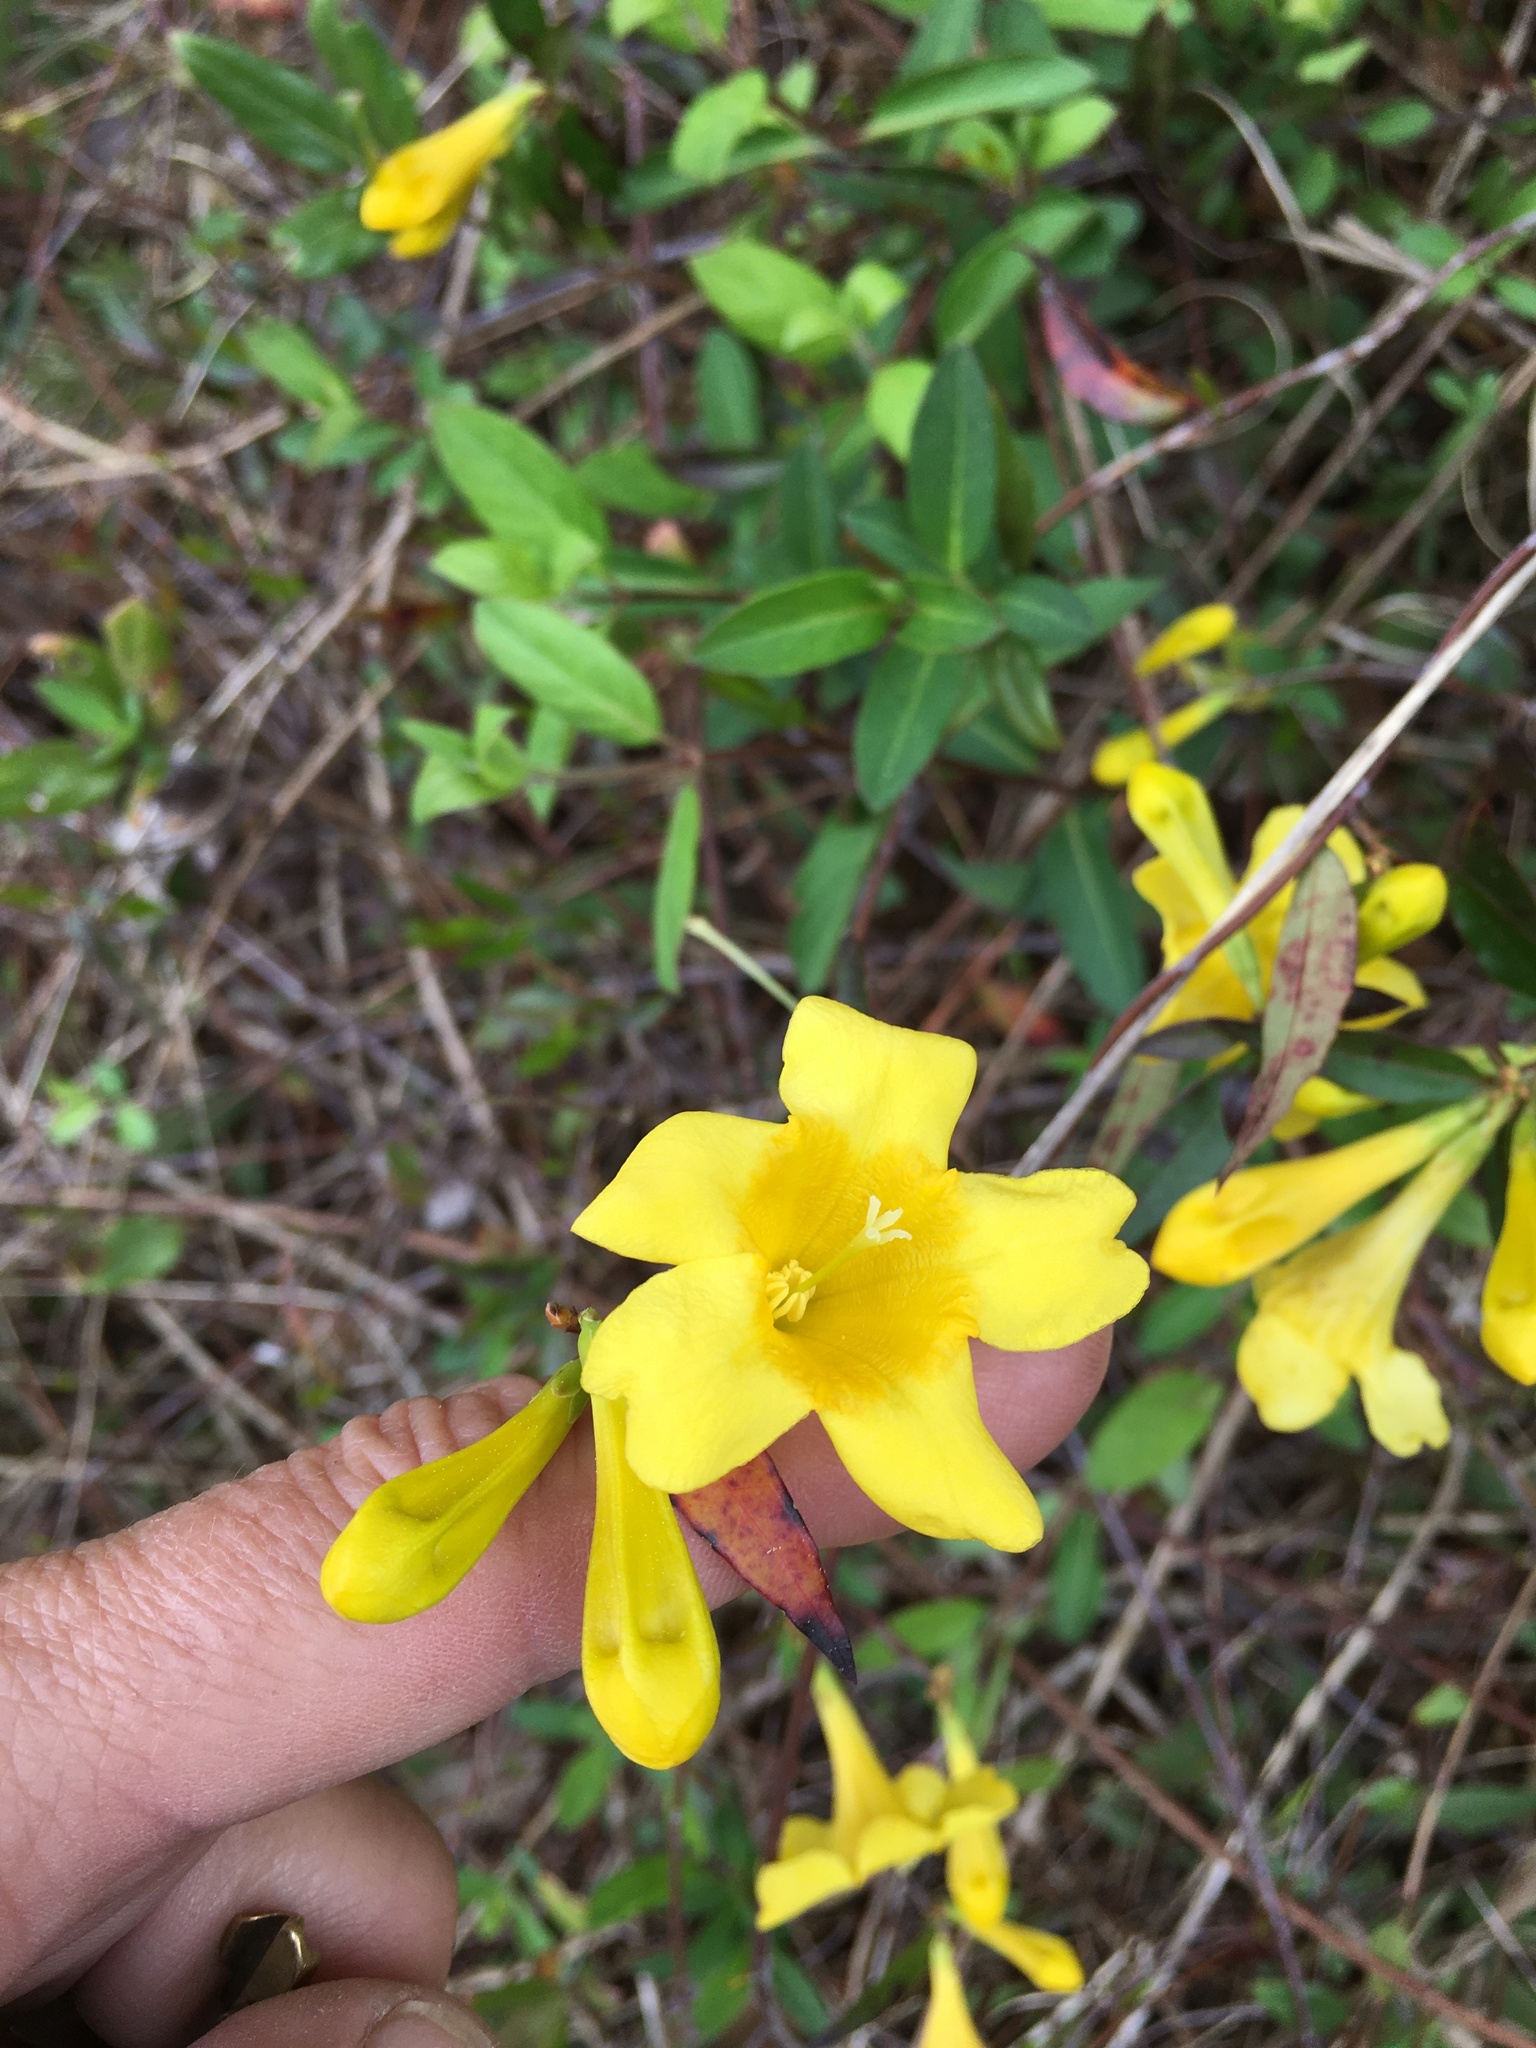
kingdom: Plantae
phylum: Tracheophyta
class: Magnoliopsida
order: Gentianales
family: Gelsemiaceae
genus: Gelsemium
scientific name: Gelsemium sempervirens
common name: Carolina-jasmine
